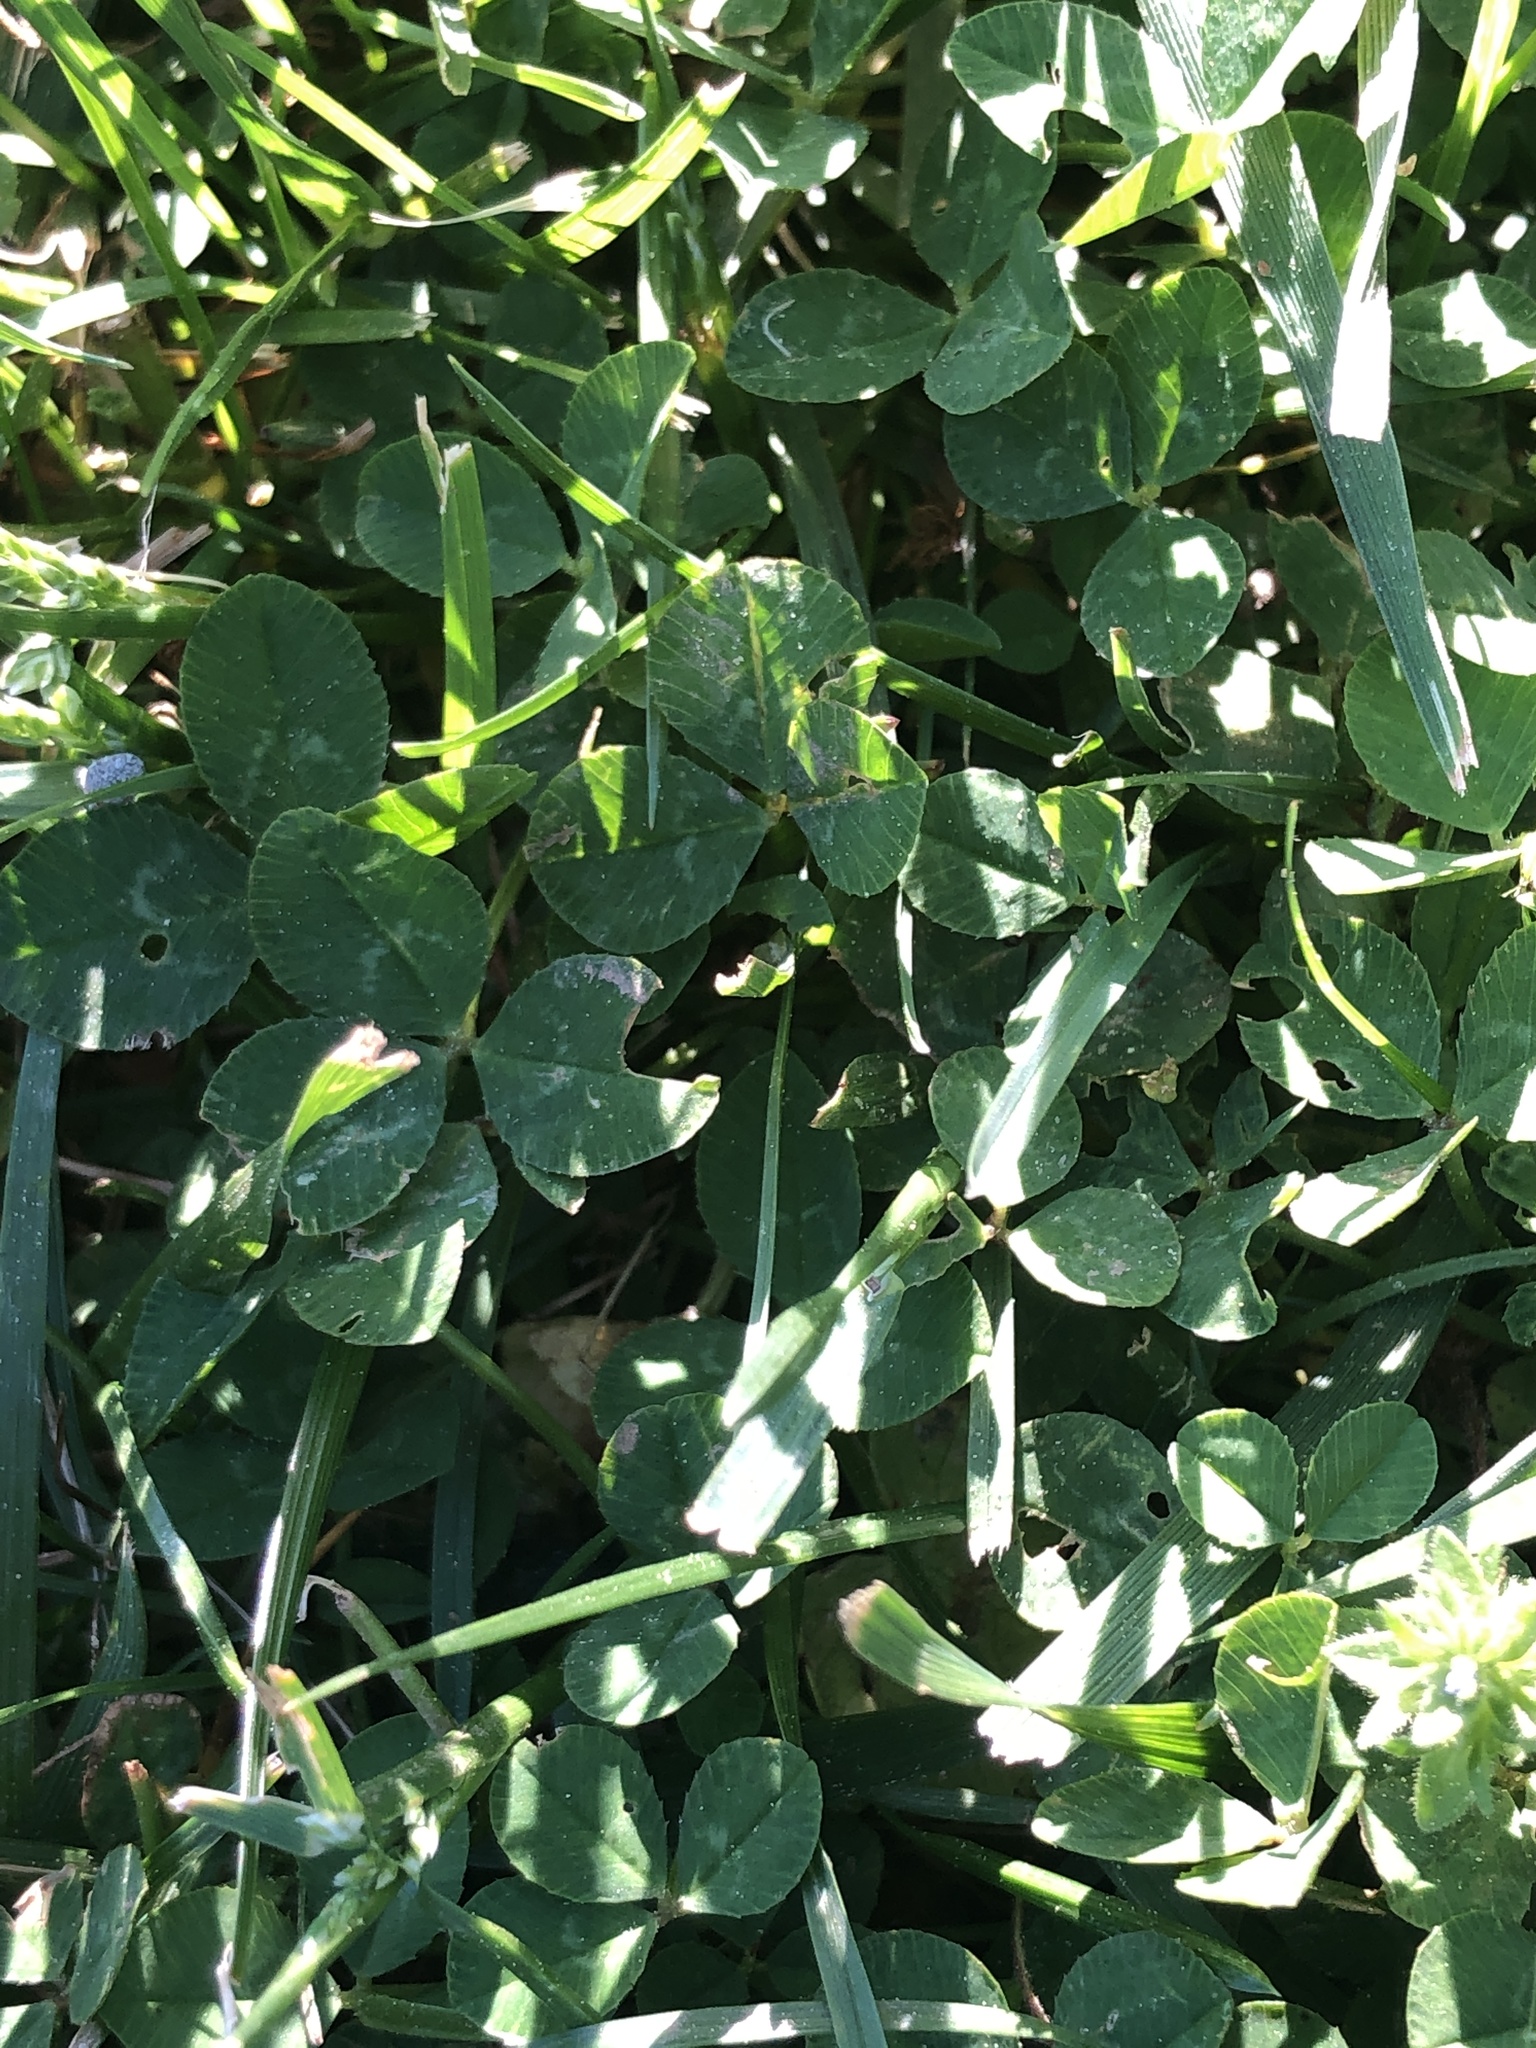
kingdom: Plantae
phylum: Tracheophyta
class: Magnoliopsida
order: Fabales
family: Fabaceae
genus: Trifolium
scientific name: Trifolium repens
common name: White clover
